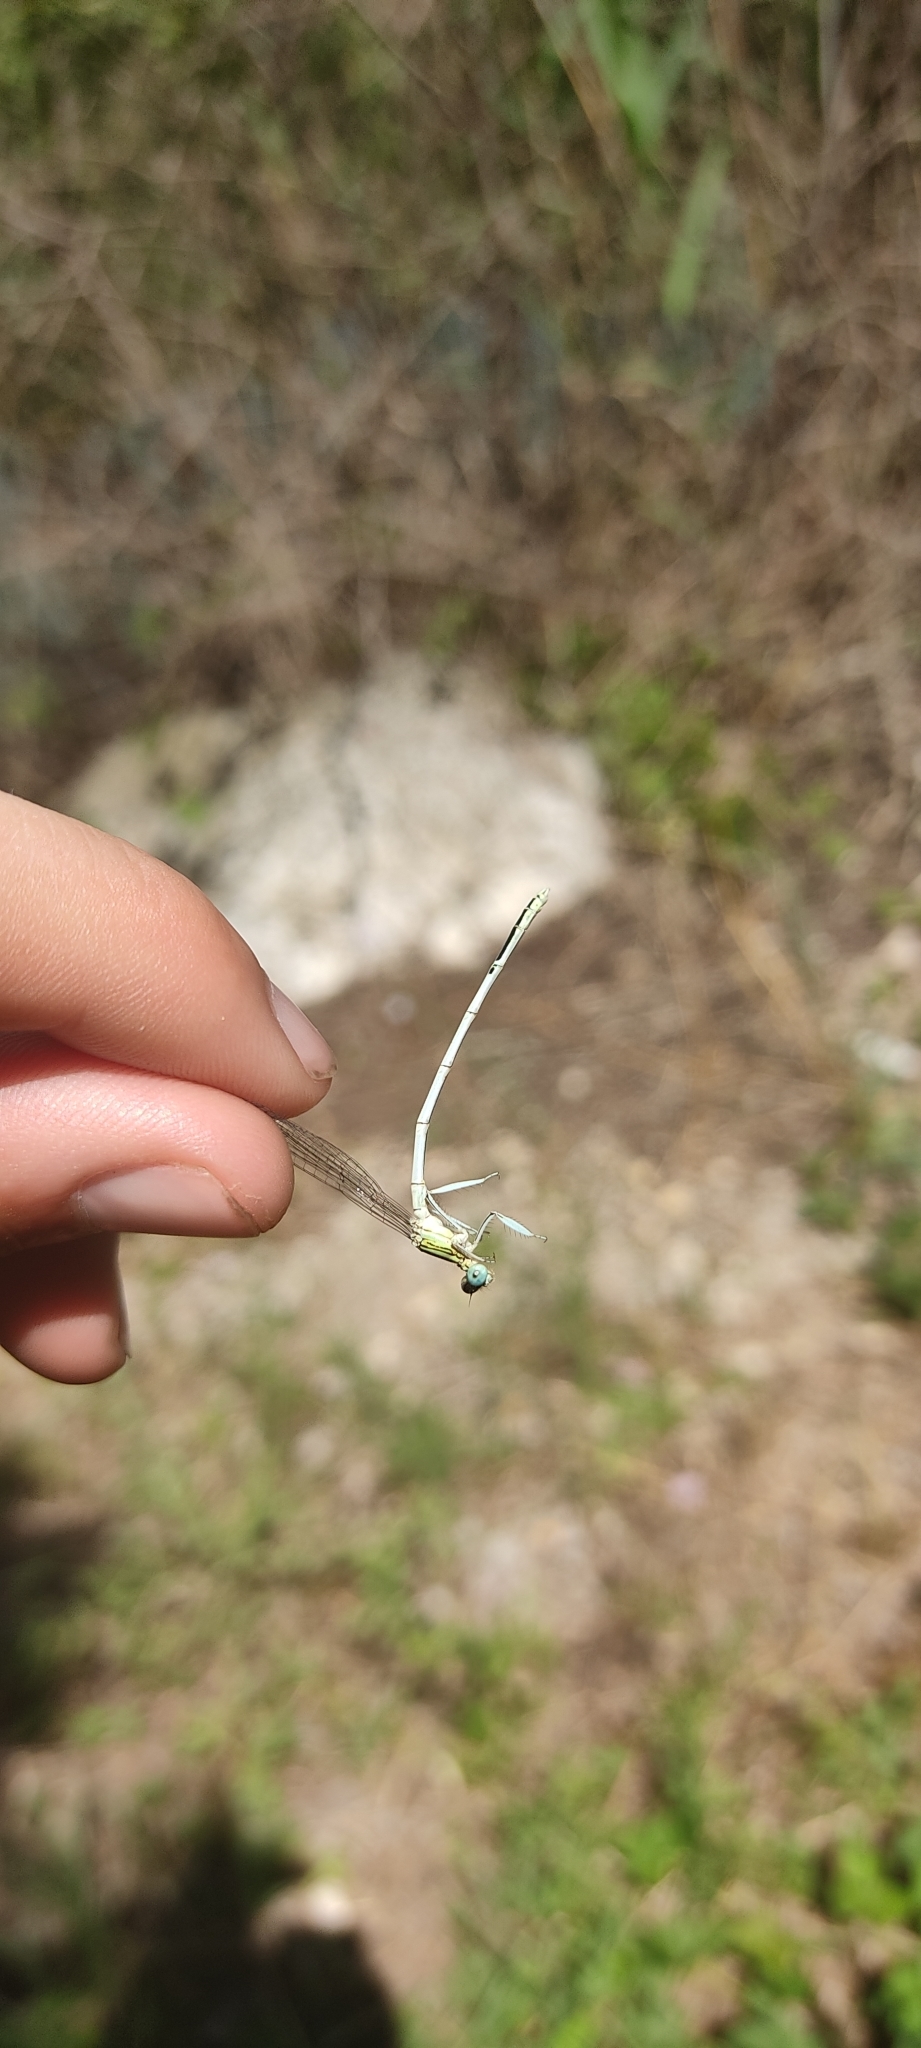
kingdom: Animalia
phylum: Arthropoda
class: Insecta
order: Odonata
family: Platycnemididae
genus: Platycnemis
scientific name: Platycnemis latipes
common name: White featherleg
